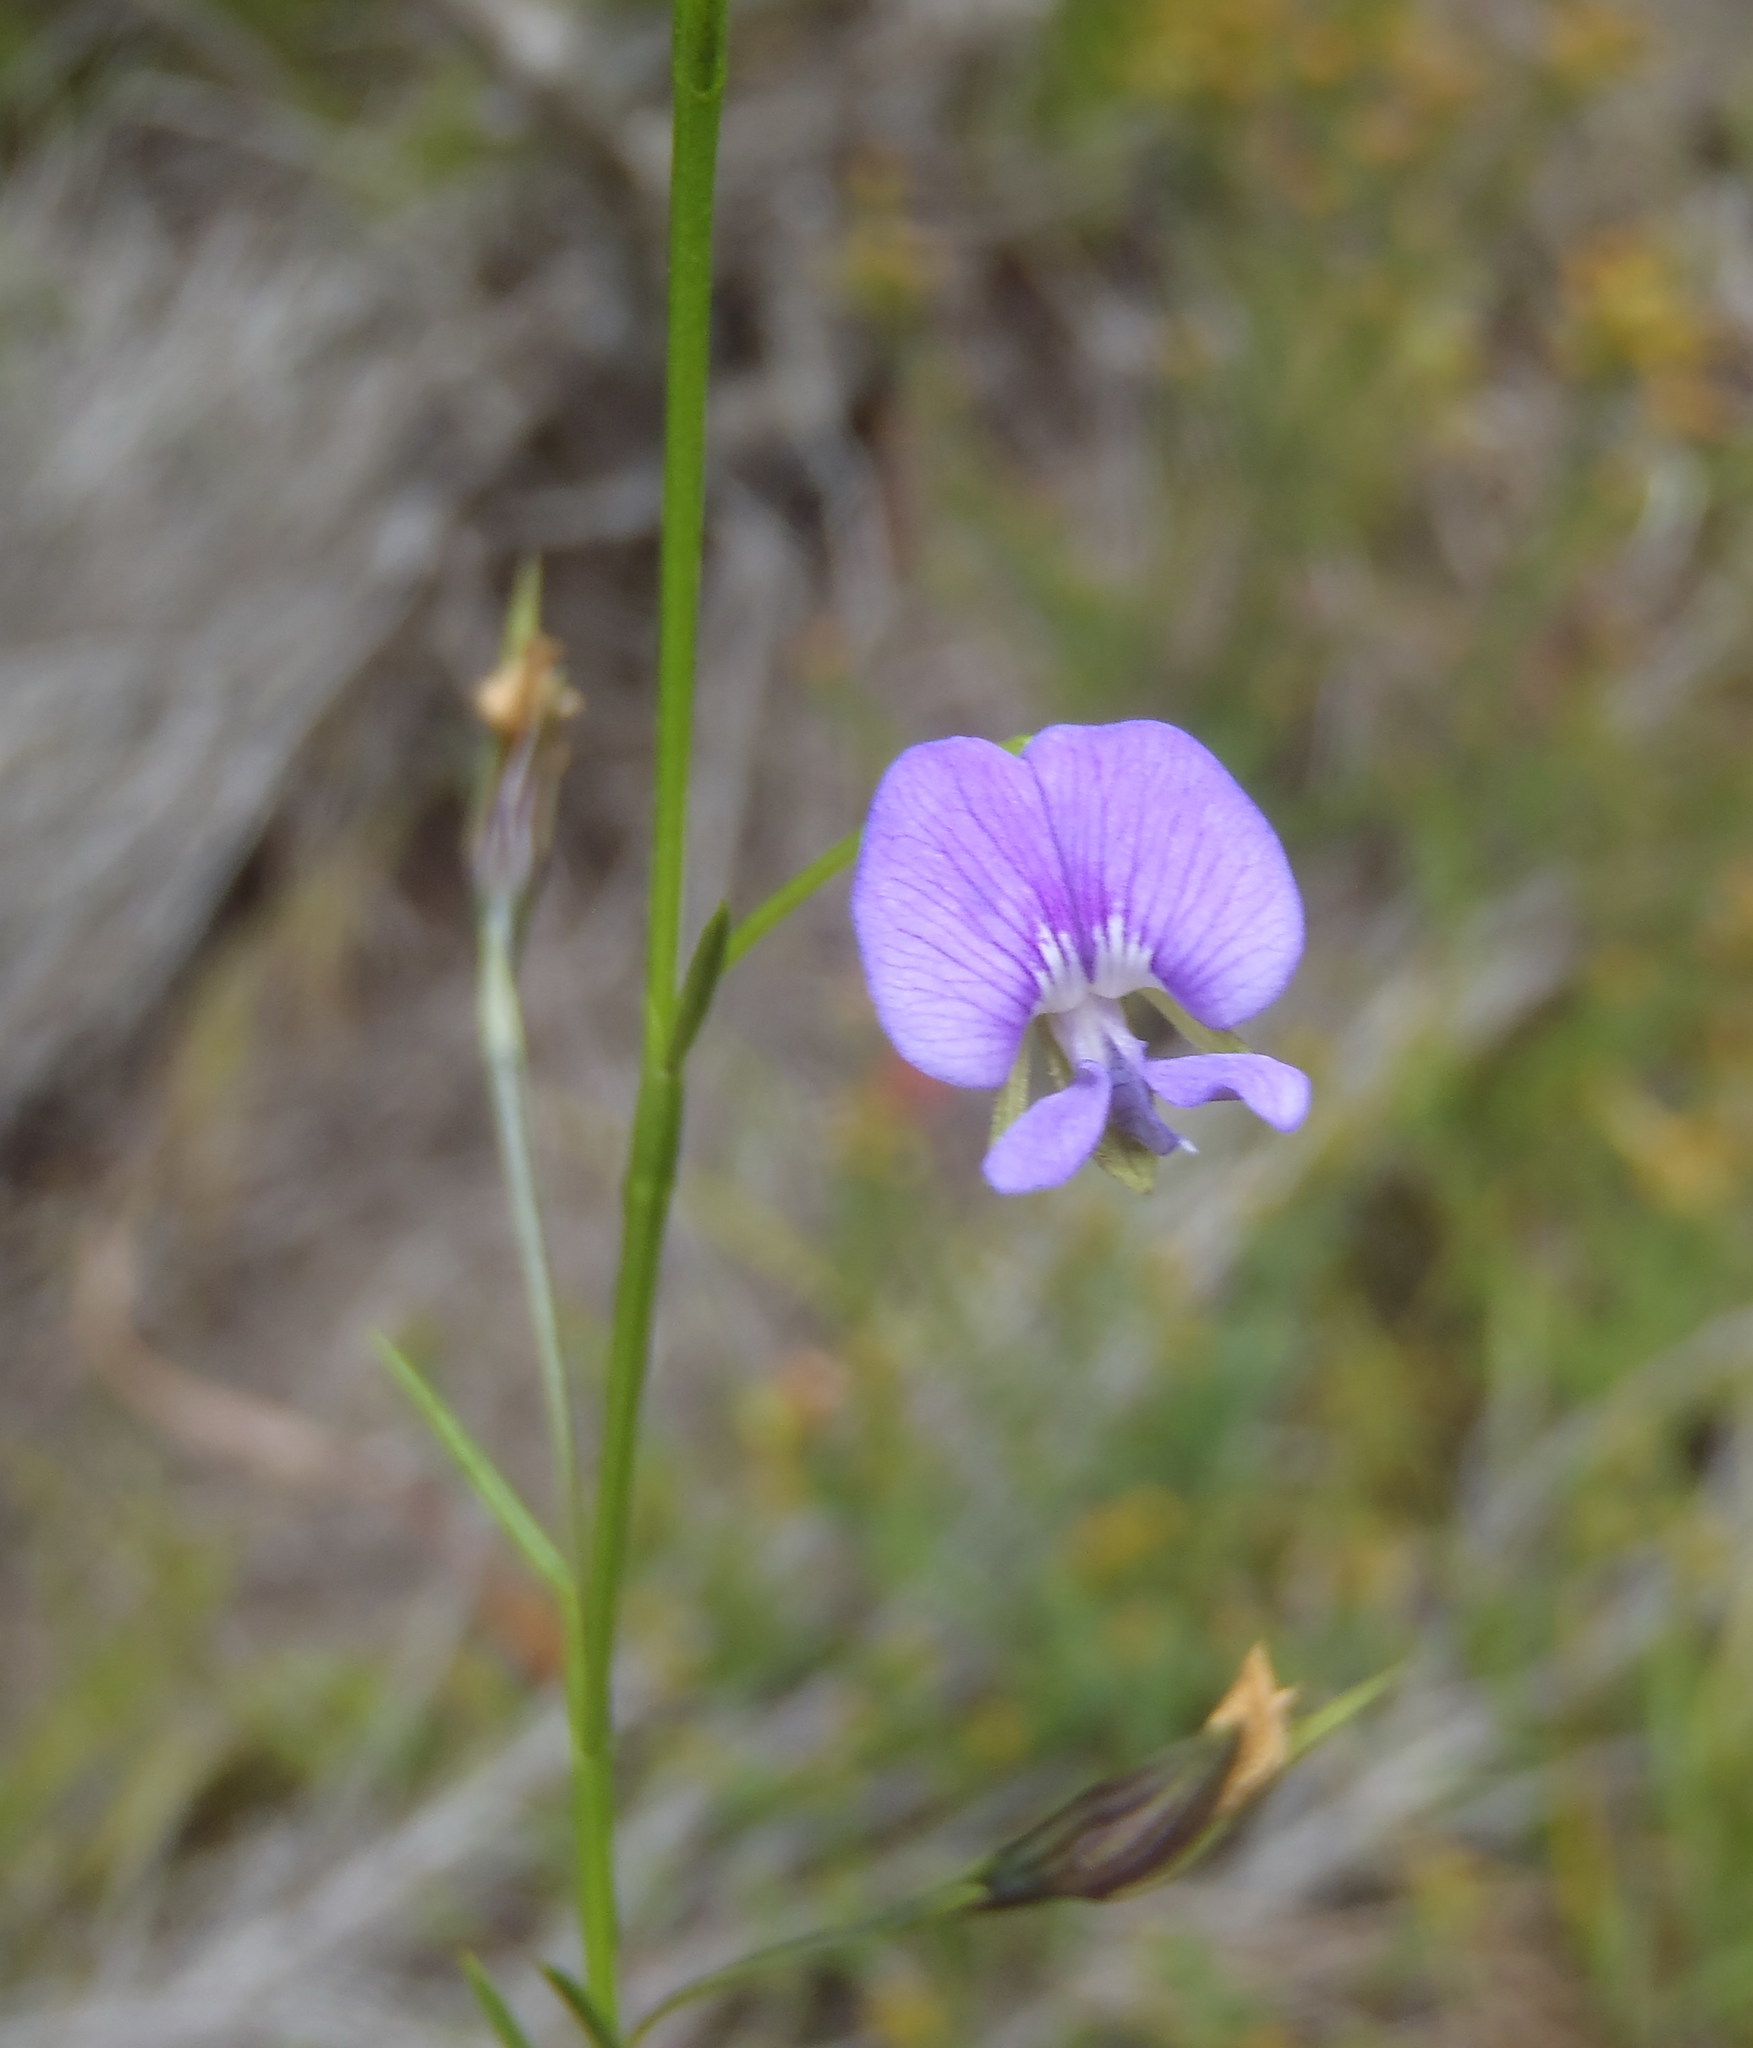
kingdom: Plantae
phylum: Tracheophyta
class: Magnoliopsida
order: Fabales
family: Fabaceae
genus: Psoralea
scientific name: Psoralea trullata
